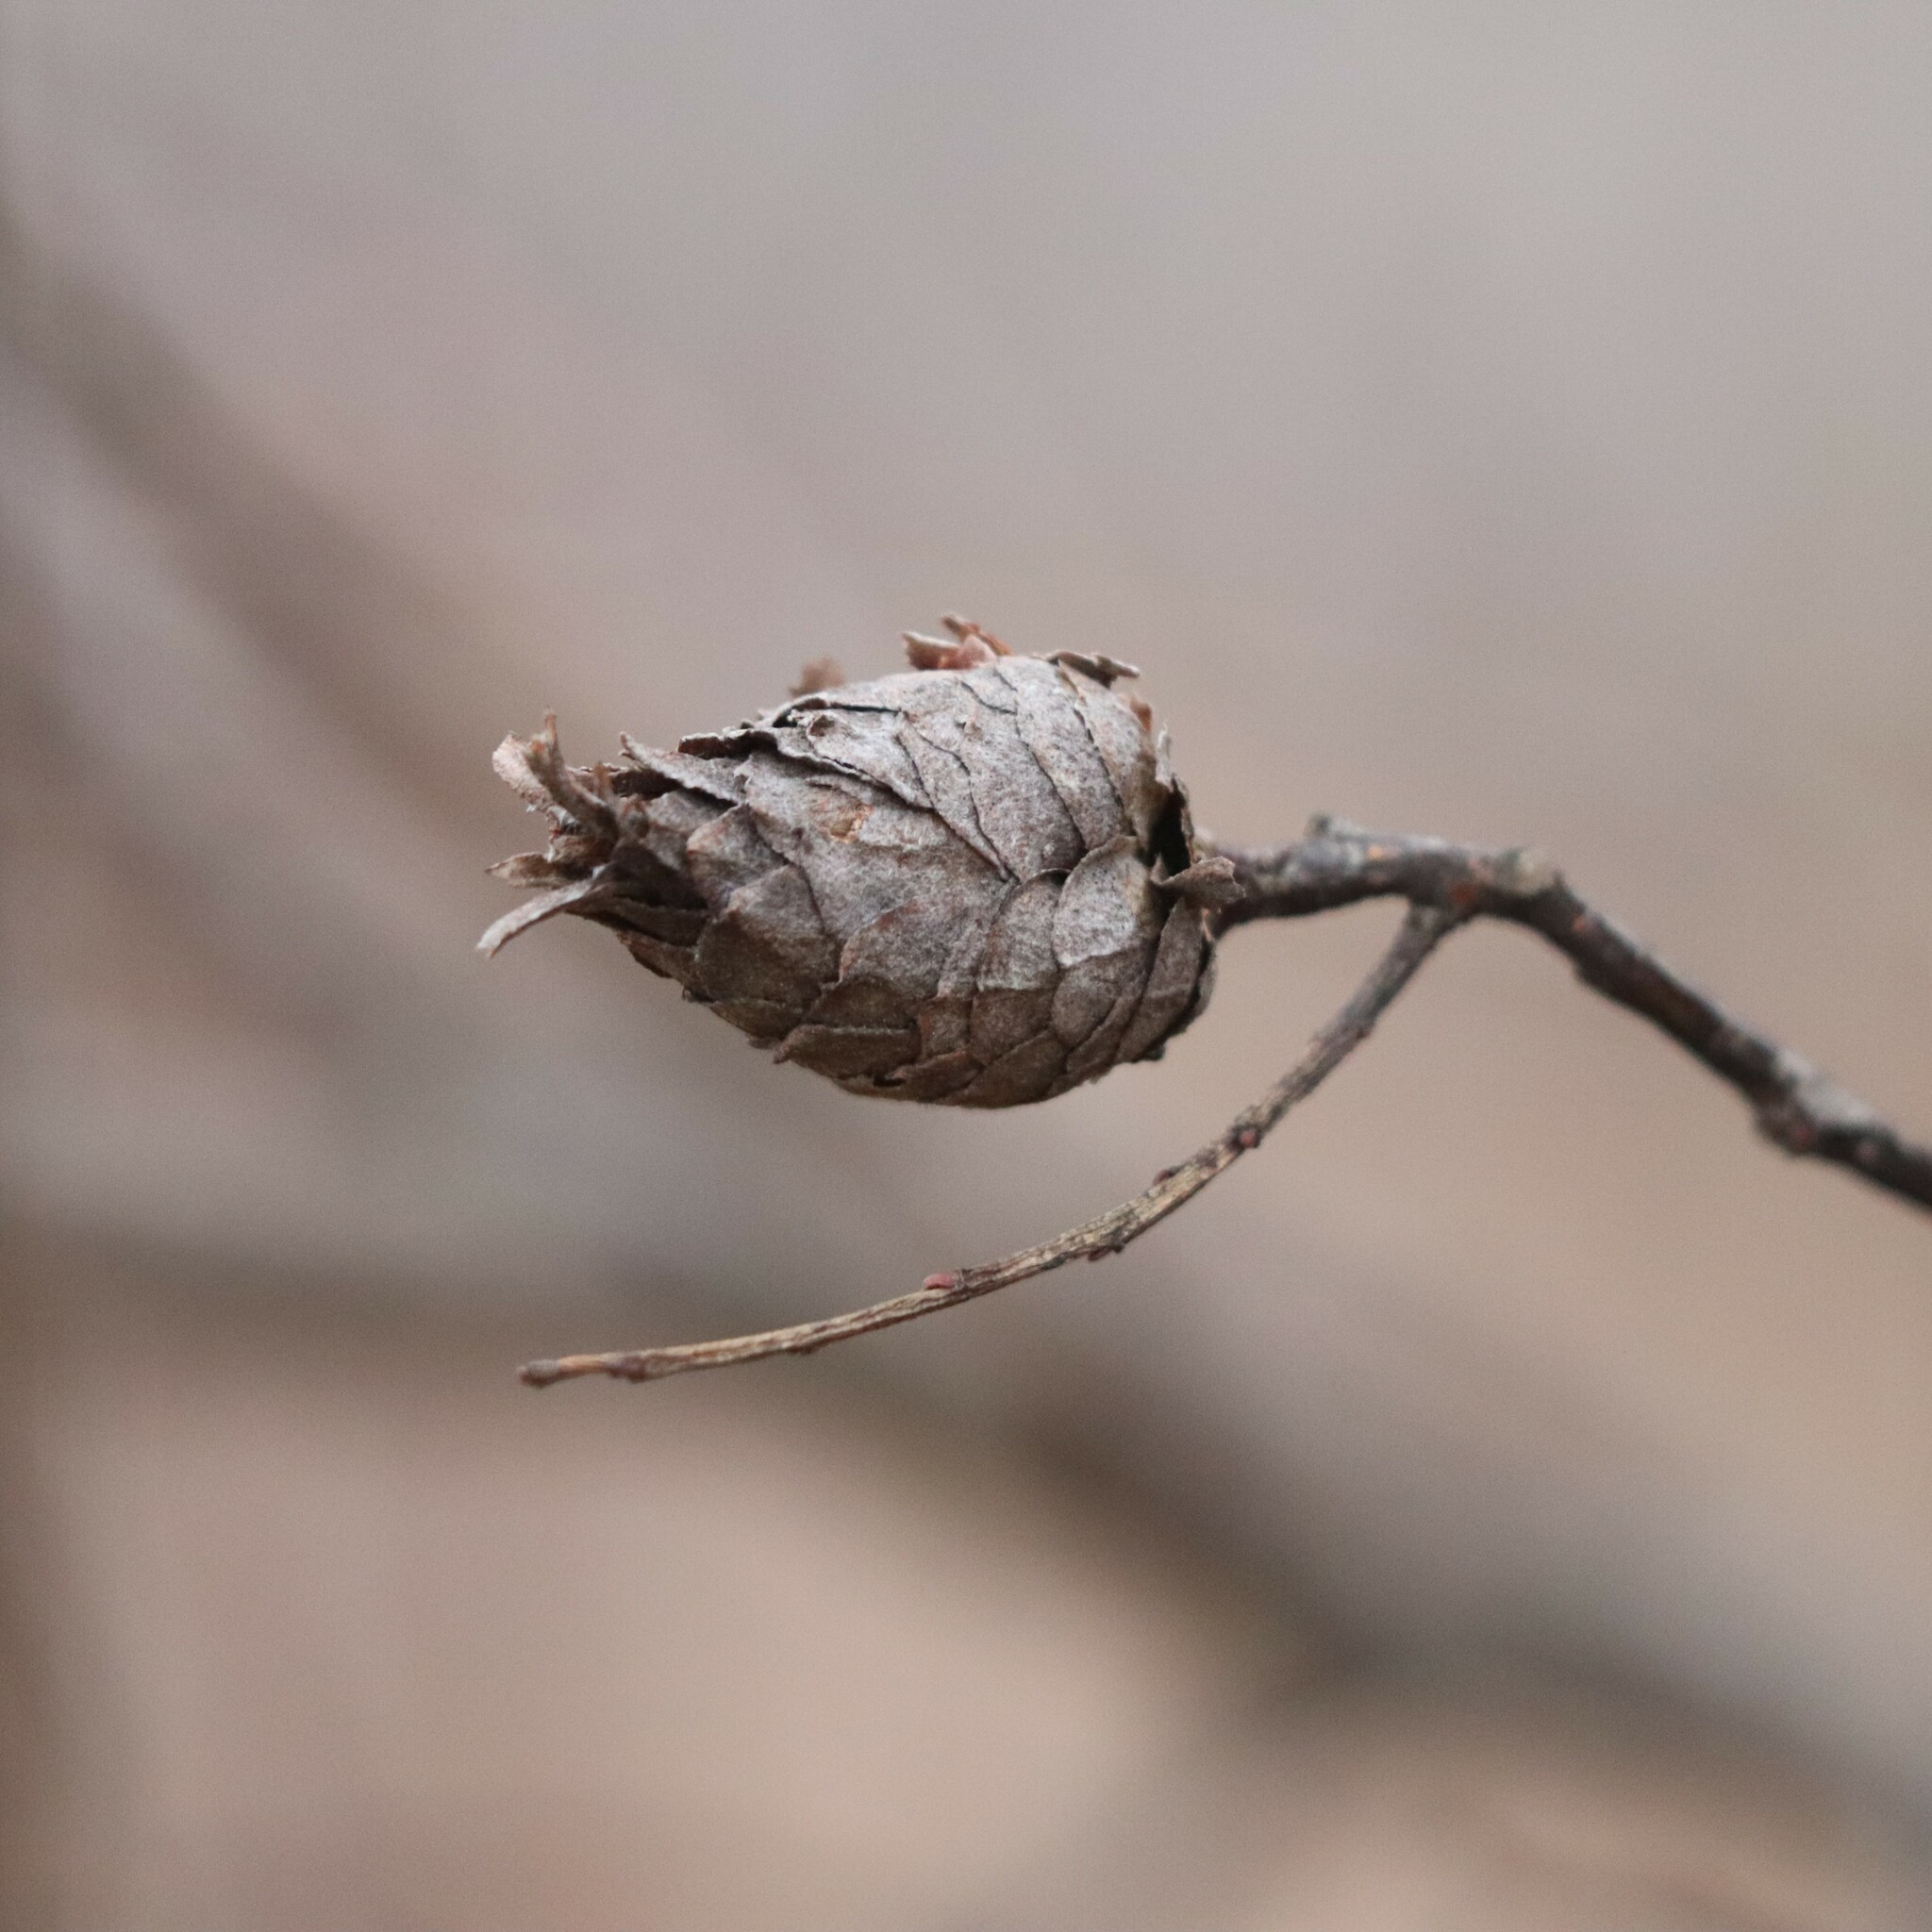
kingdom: Animalia
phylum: Arthropoda
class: Insecta
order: Diptera
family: Cecidomyiidae
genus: Rabdophaga
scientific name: Rabdophaga strobiloides
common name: Willow pinecone gall midge
